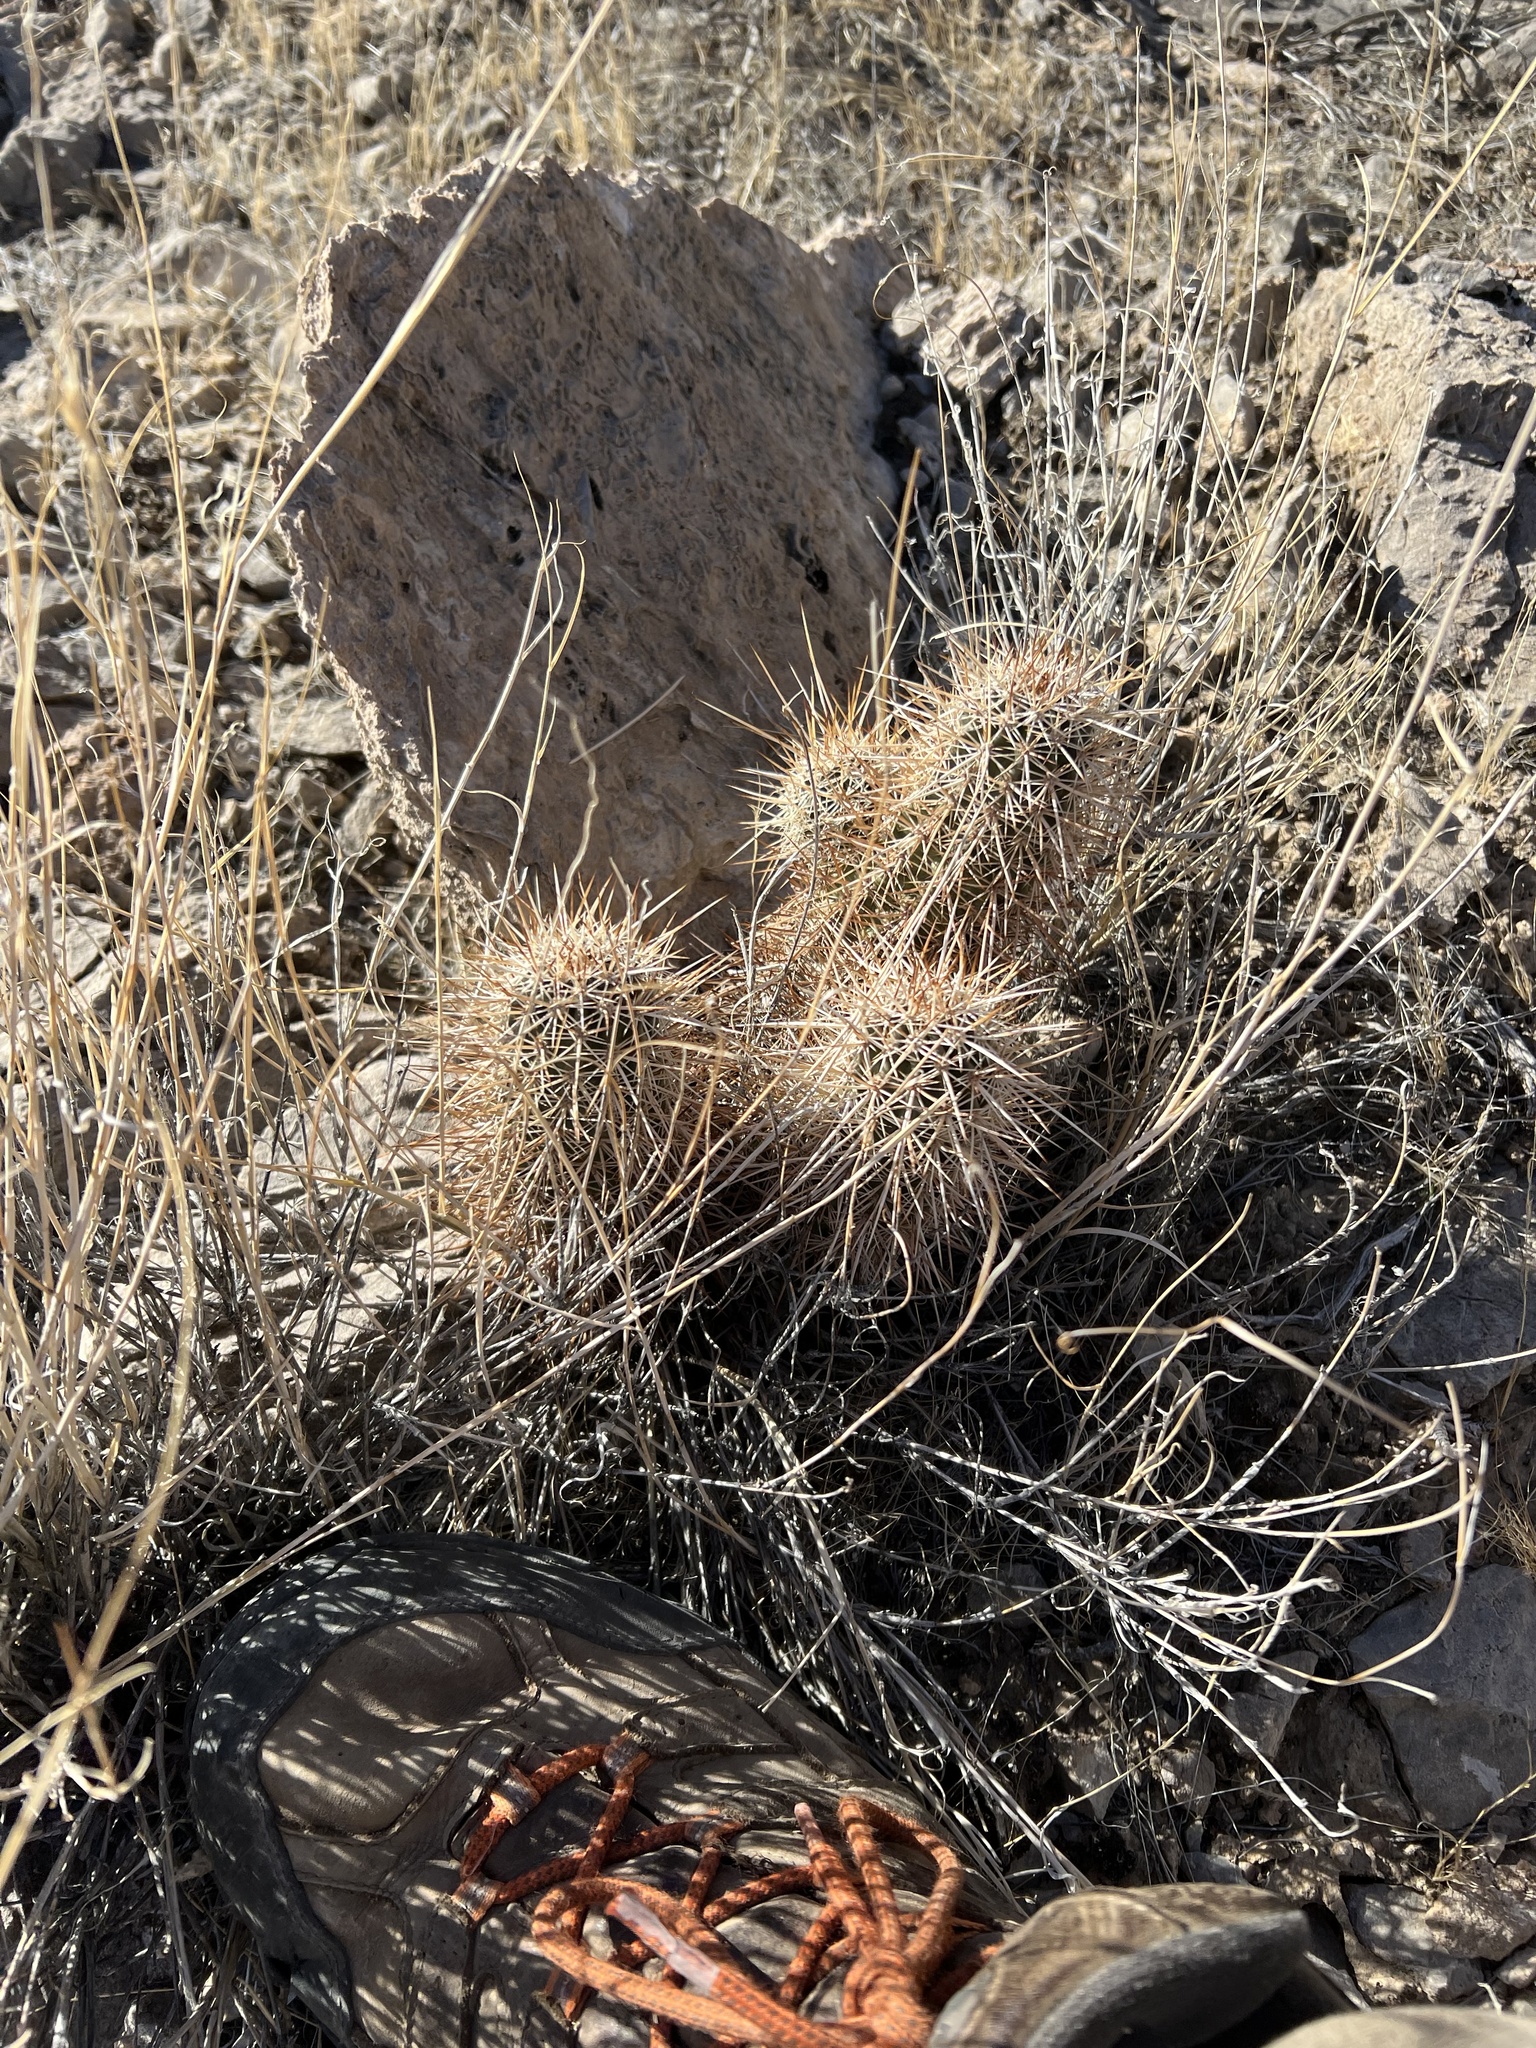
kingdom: Plantae
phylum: Tracheophyta
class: Magnoliopsida
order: Caryophyllales
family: Cactaceae
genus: Echinocereus
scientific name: Echinocereus engelmannii
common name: Engelmann's hedgehog cactus
